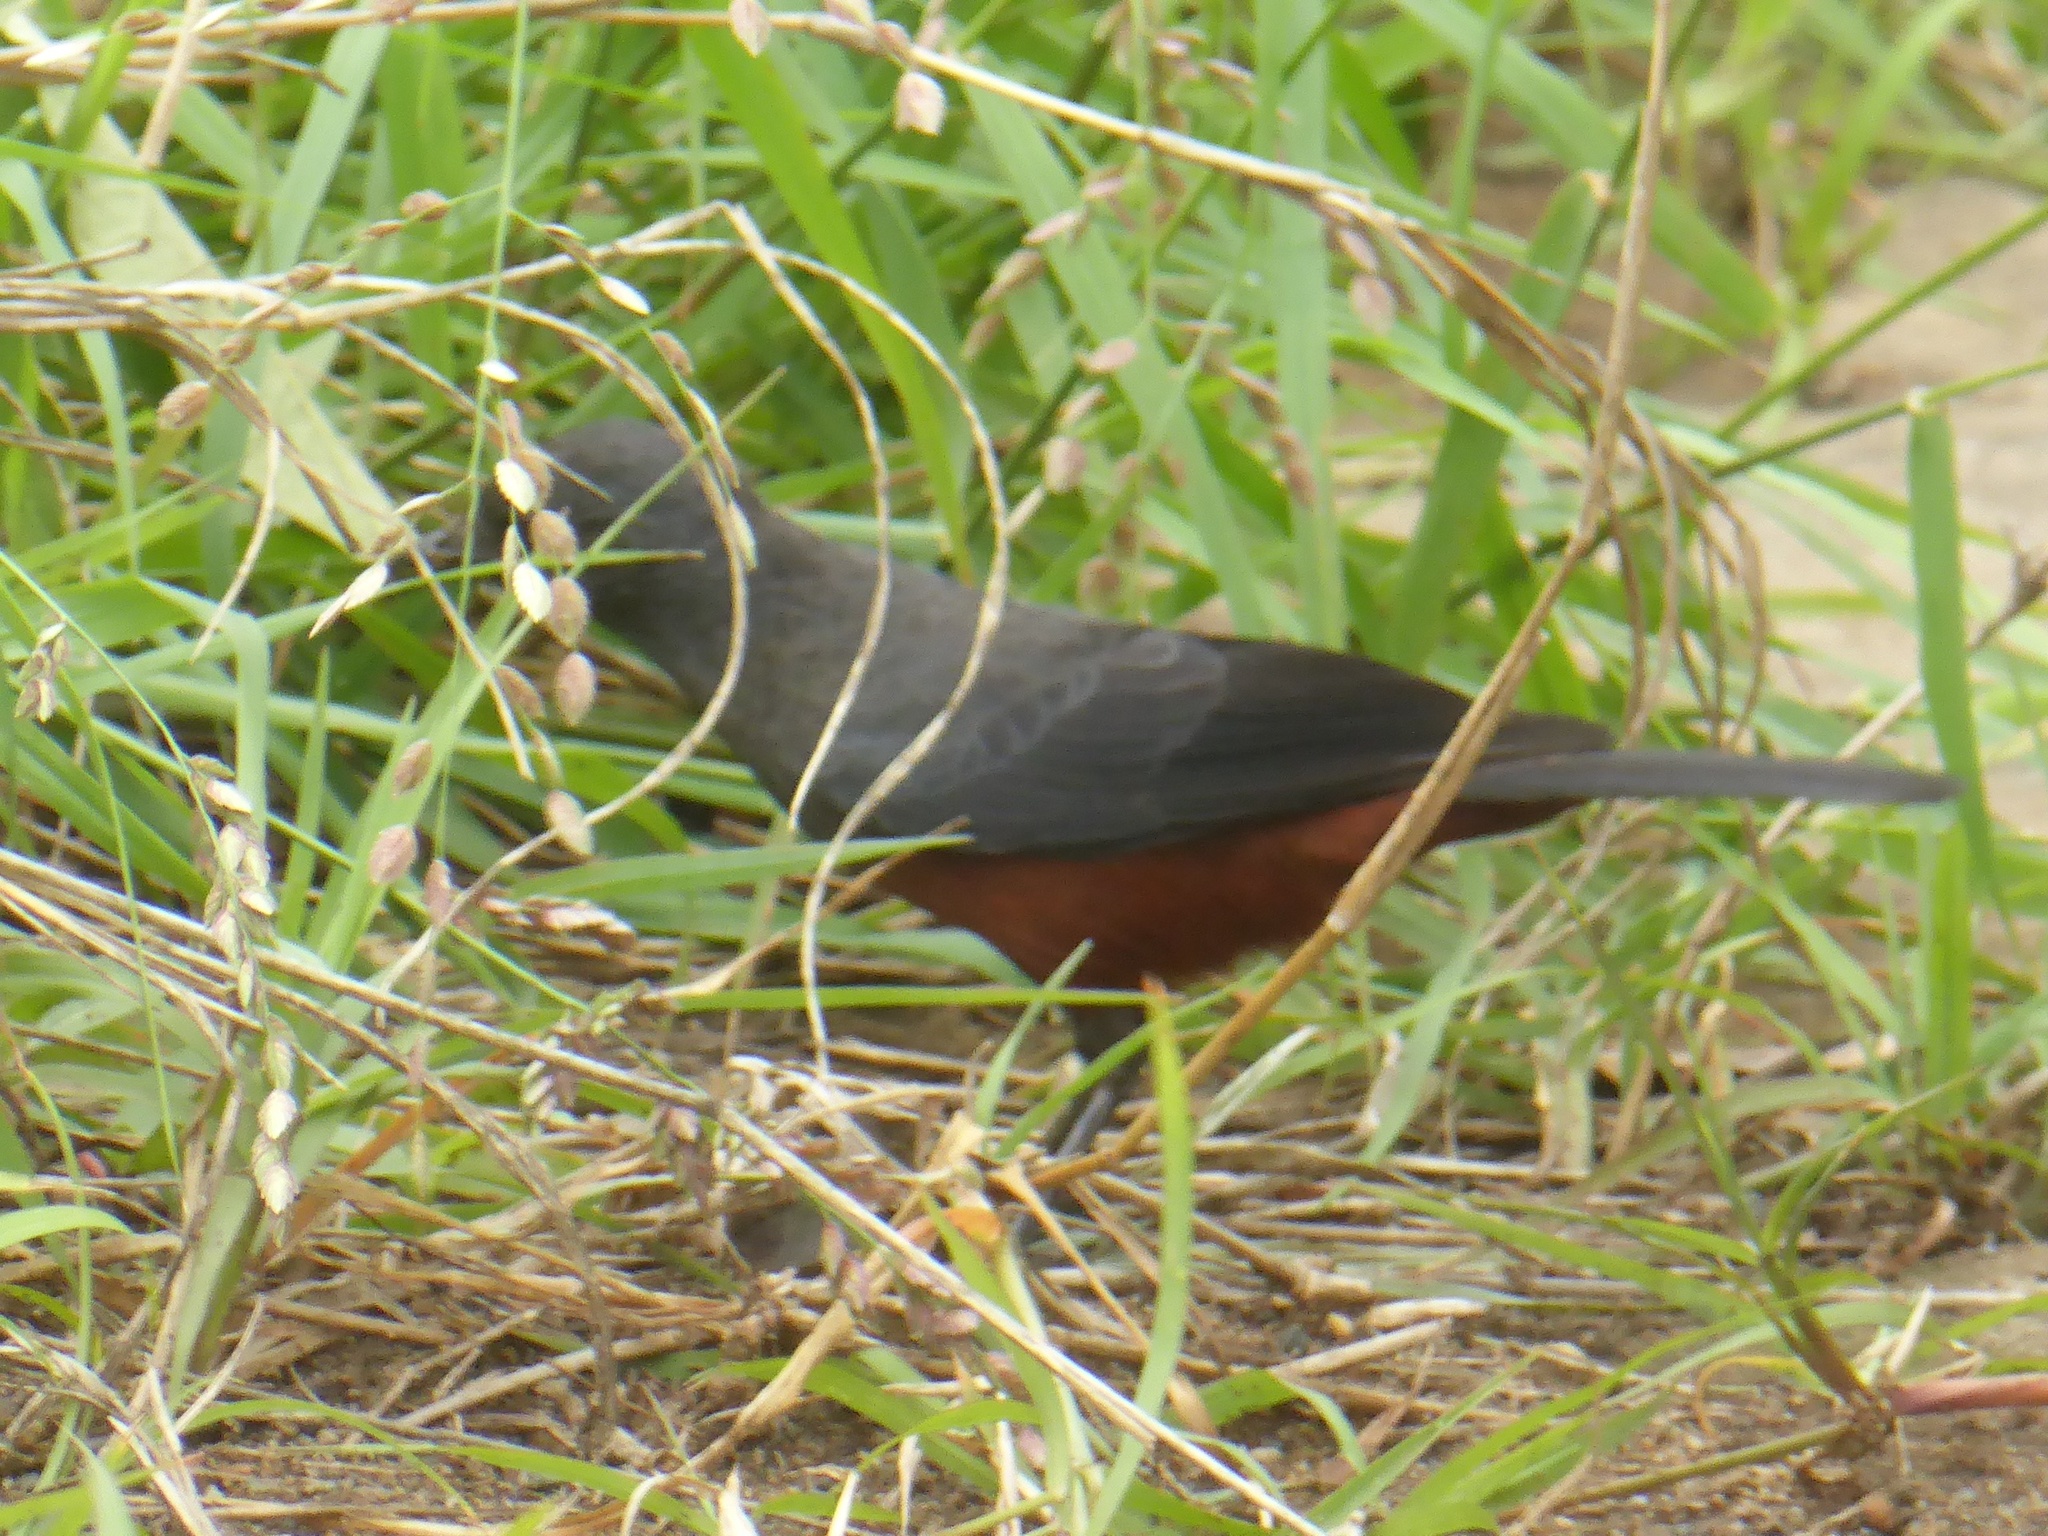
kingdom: Animalia
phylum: Chordata
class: Aves
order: Passeriformes
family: Muscicapidae
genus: Thamnolaea
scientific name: Thamnolaea cinnamomeiventris
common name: Mocking cliff chat
